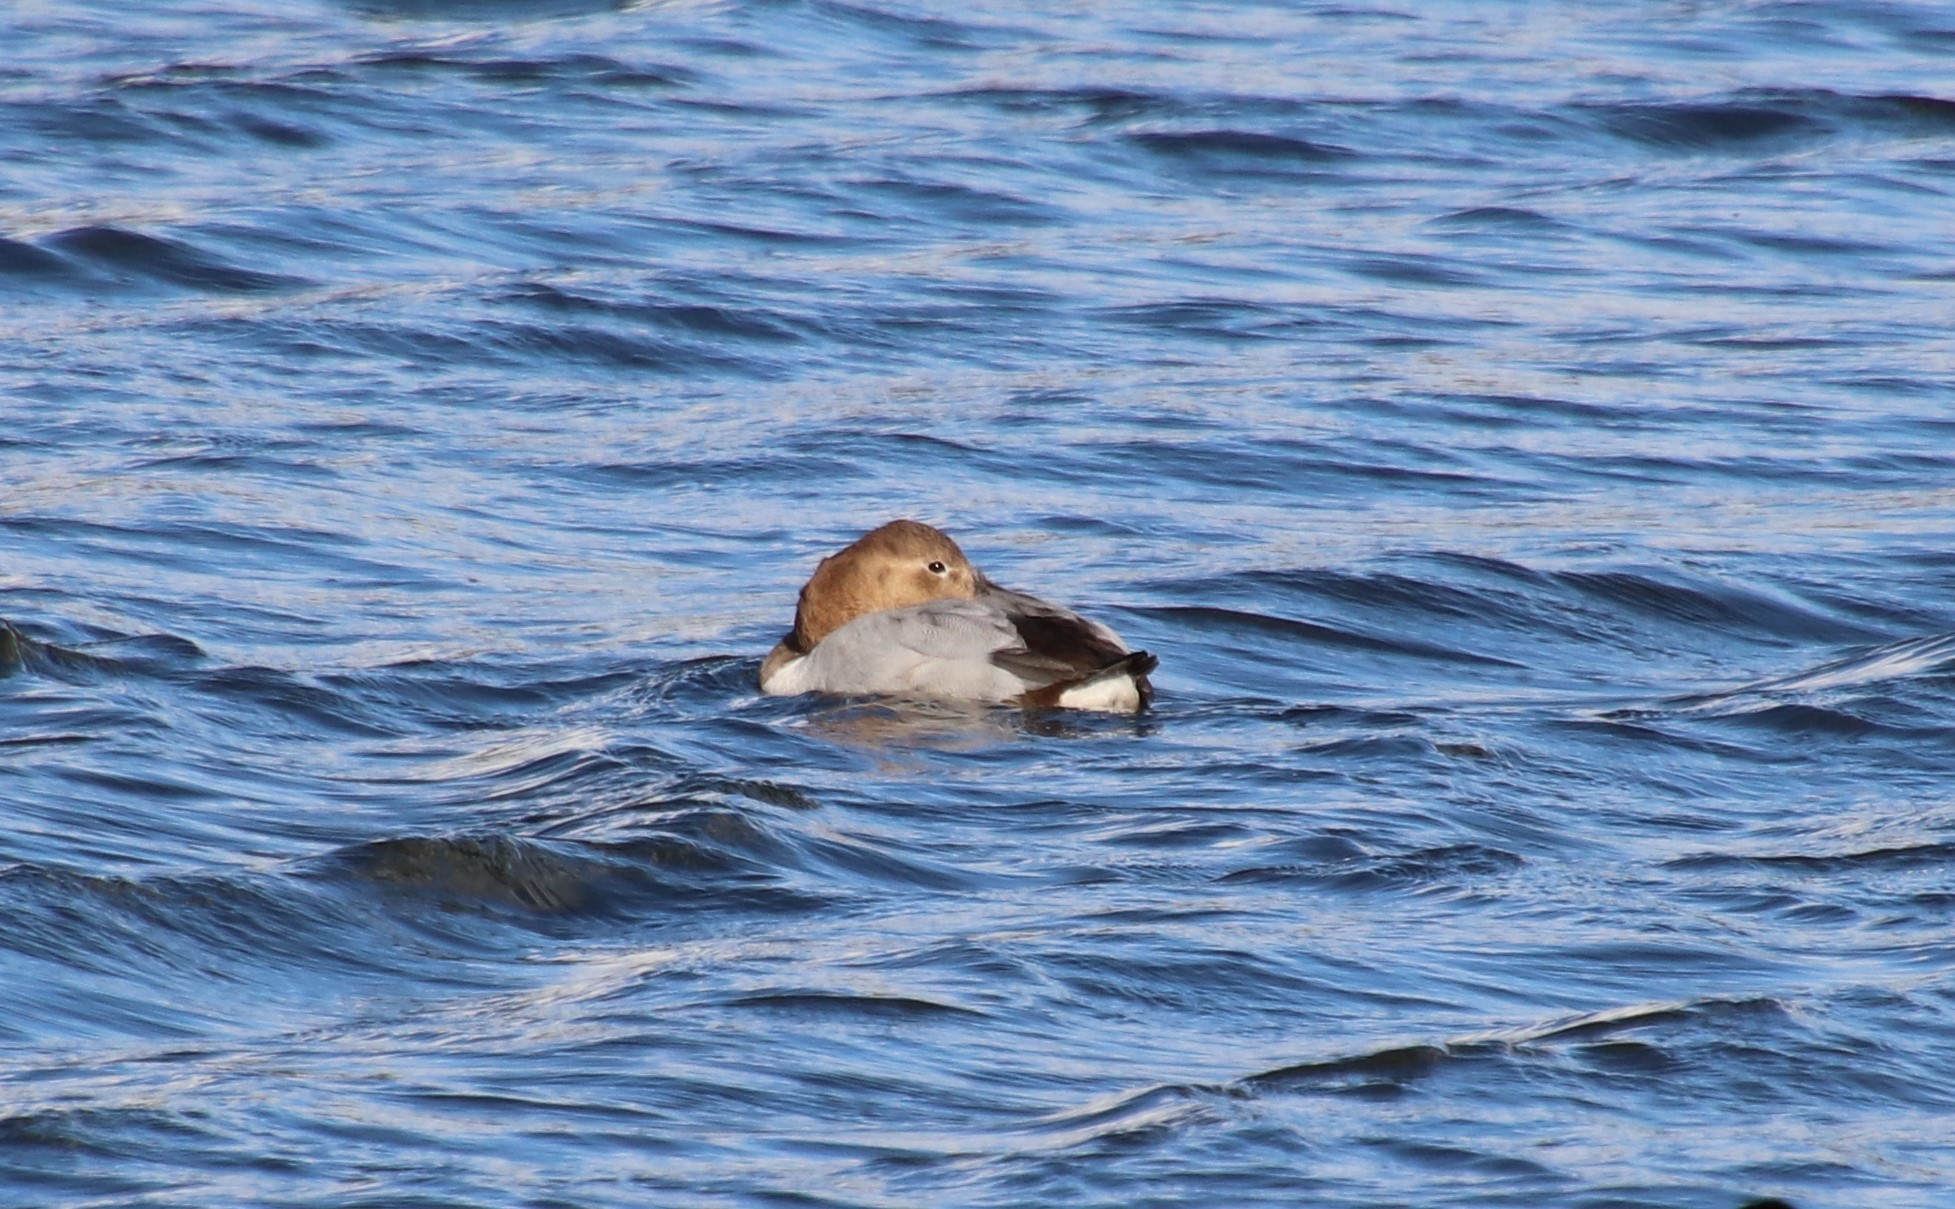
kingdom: Animalia
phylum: Chordata
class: Aves
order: Anseriformes
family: Anatidae
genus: Aythya
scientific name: Aythya valisineria
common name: Canvasback
